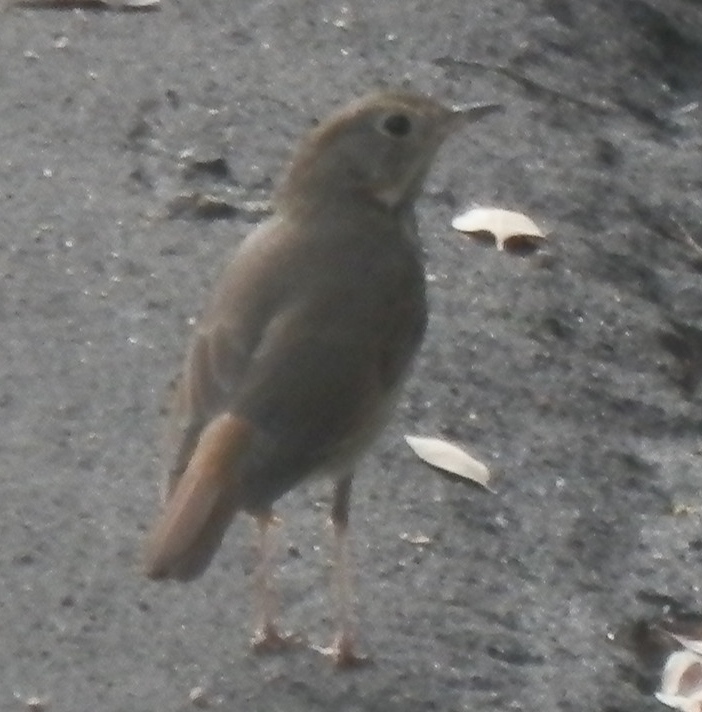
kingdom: Animalia
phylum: Chordata
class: Aves
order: Passeriformes
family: Turdidae
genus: Catharus
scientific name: Catharus guttatus
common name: Hermit thrush
